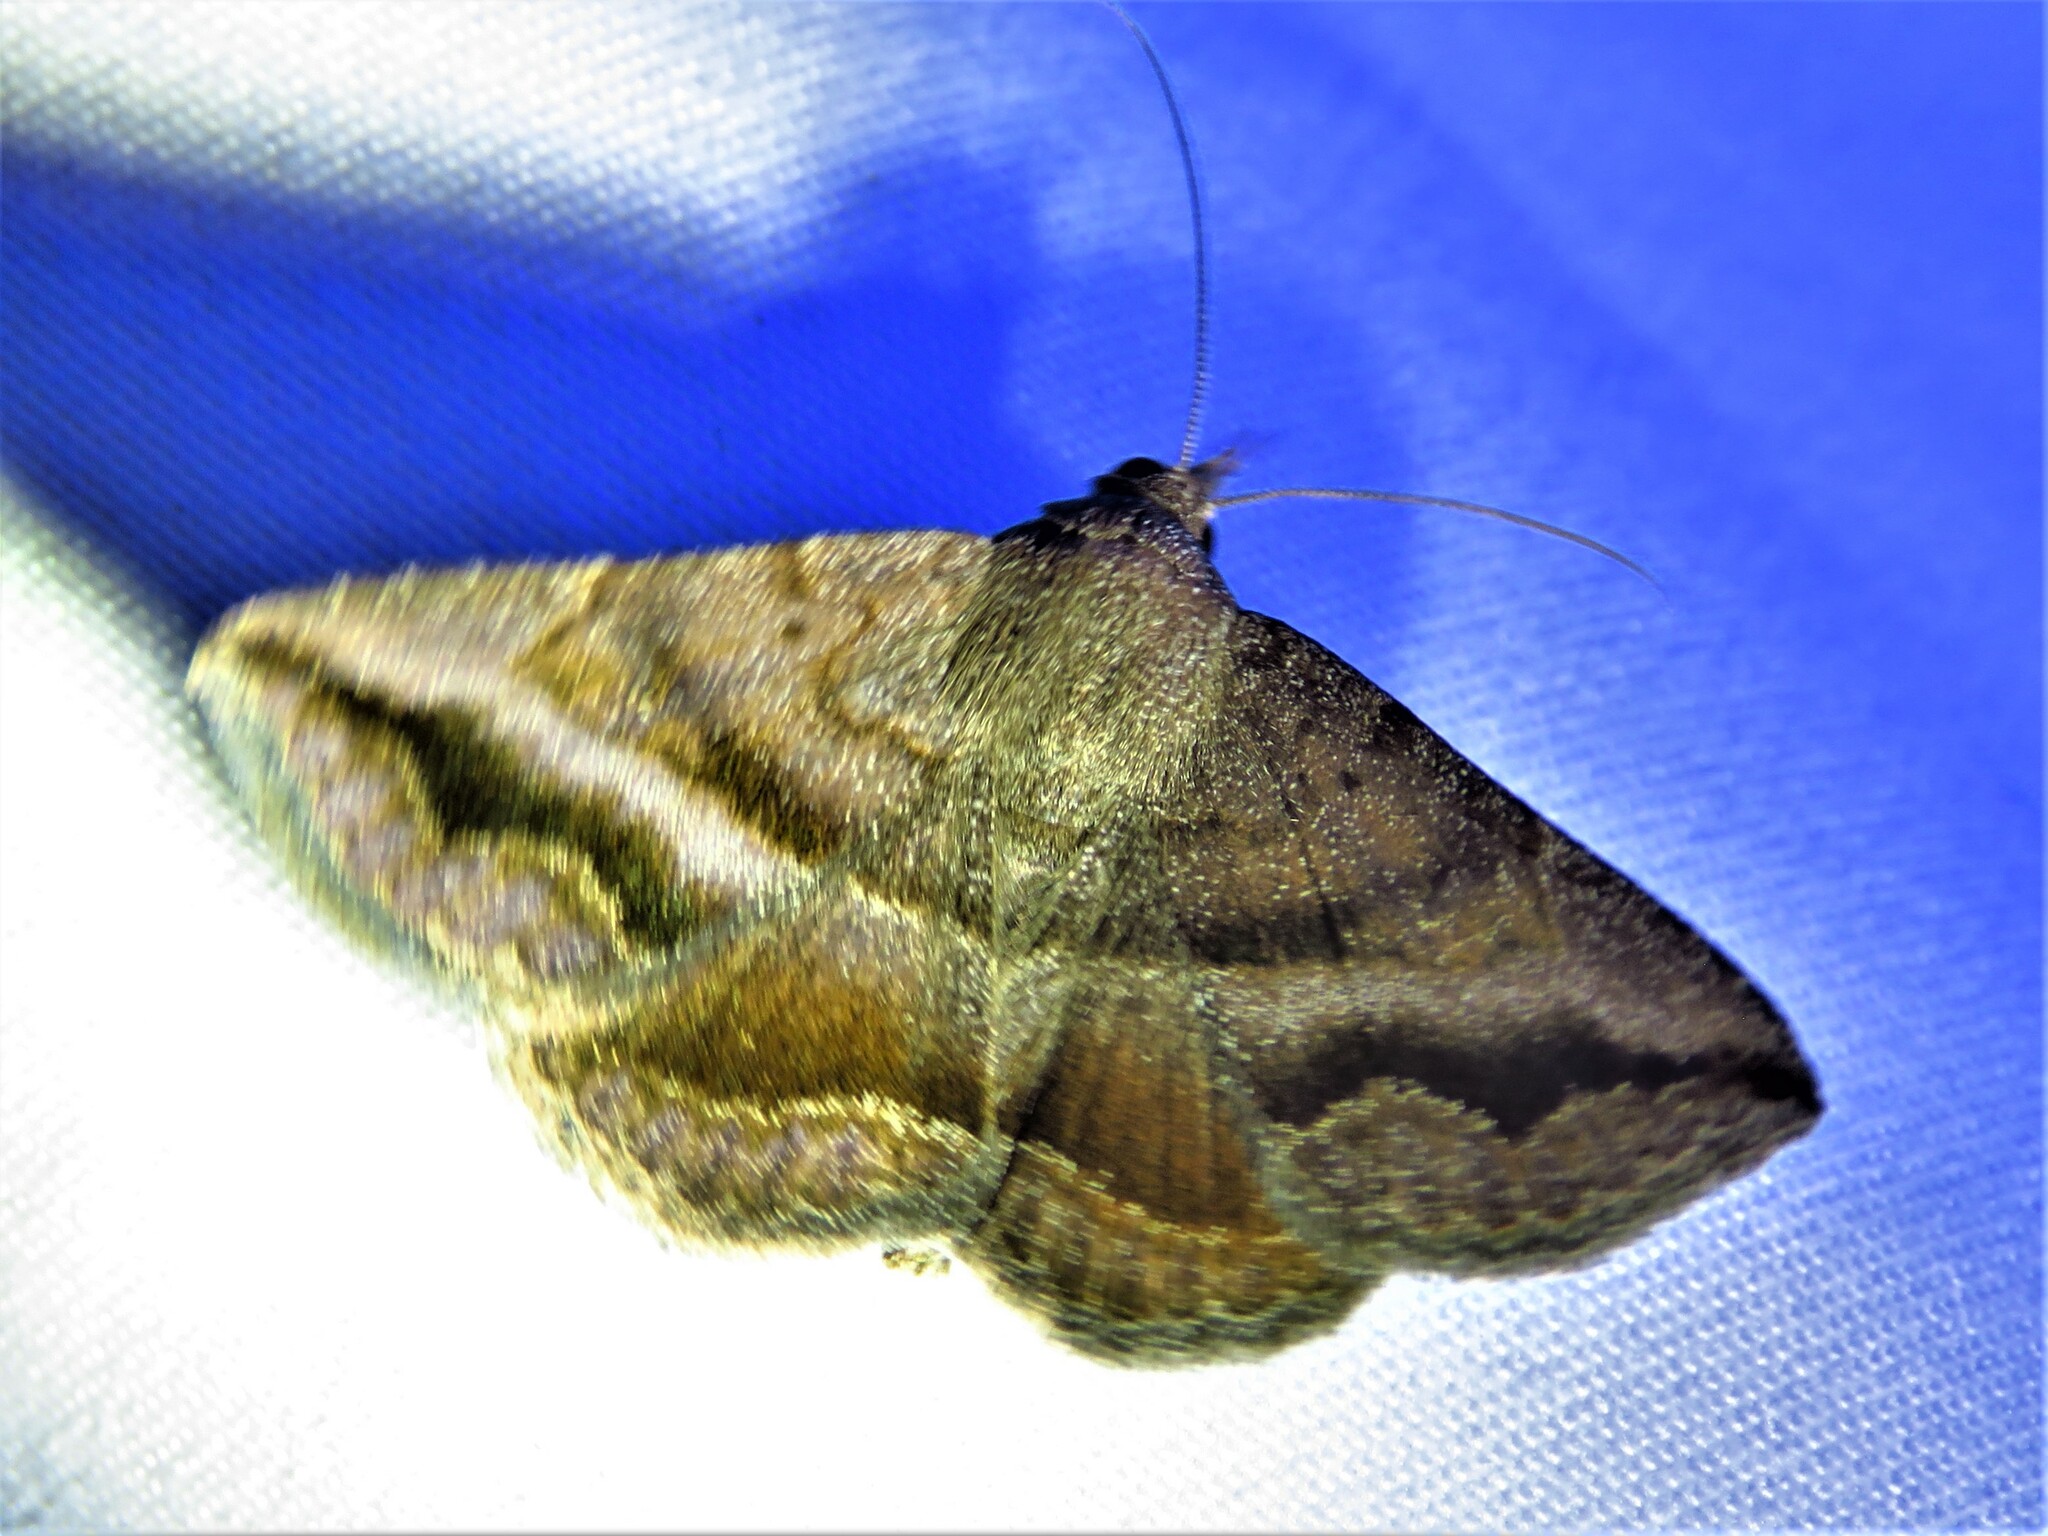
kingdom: Animalia
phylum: Arthropoda
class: Insecta
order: Lepidoptera
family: Erebidae
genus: Lesmone
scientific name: Lesmone detrahens
